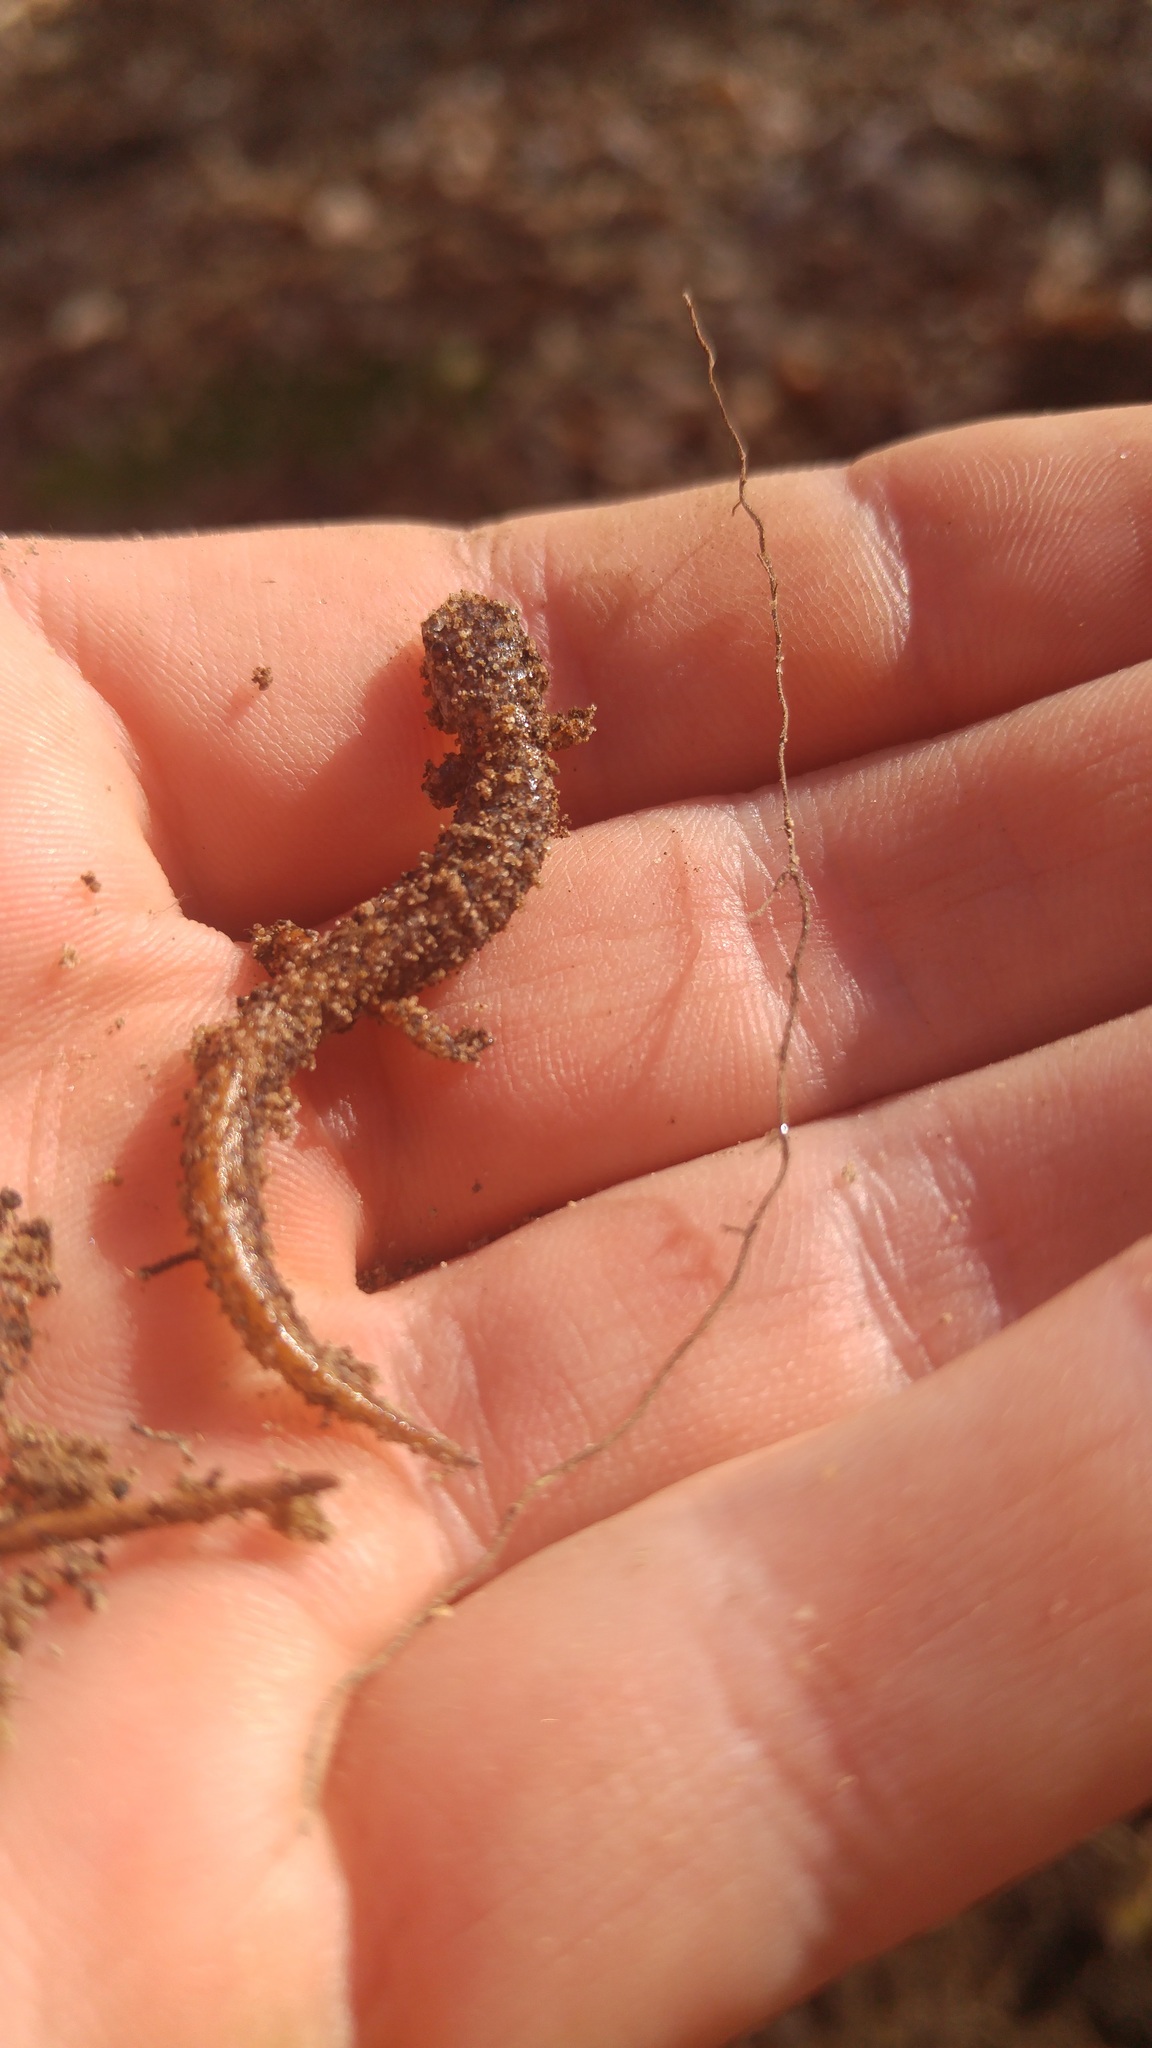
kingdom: Animalia
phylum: Chordata
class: Amphibia
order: Caudata
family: Plethodontidae
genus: Hemidactylium
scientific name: Hemidactylium scutatum
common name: Four-toed salamander
